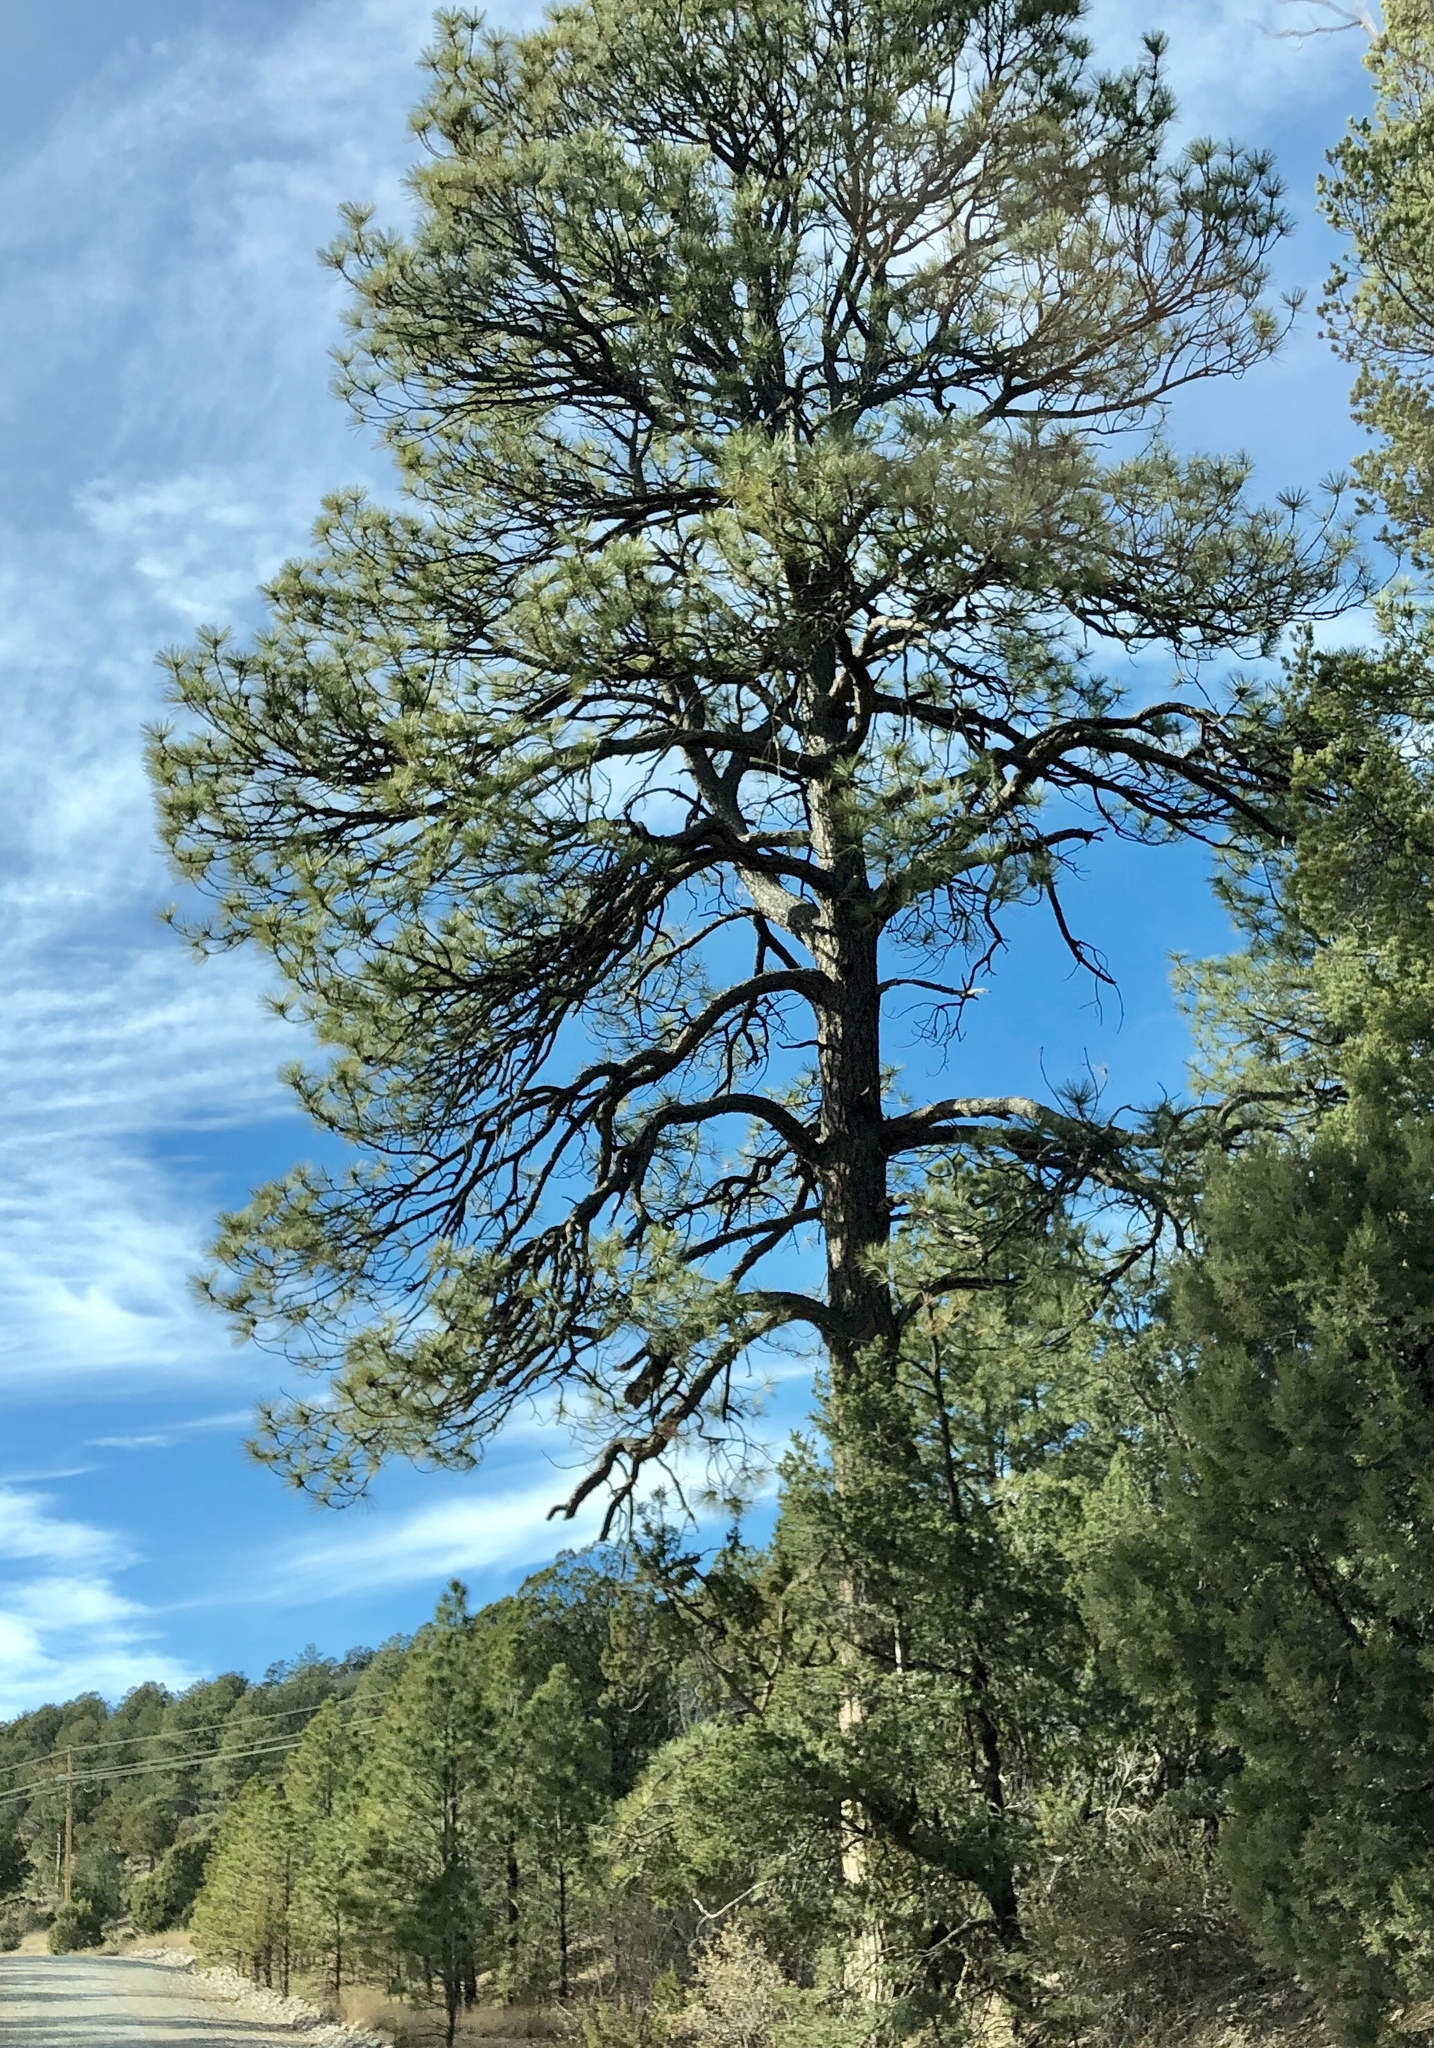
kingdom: Plantae
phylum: Tracheophyta
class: Pinopsida
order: Pinales
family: Pinaceae
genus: Pinus
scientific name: Pinus ponderosa
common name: Western yellow-pine
